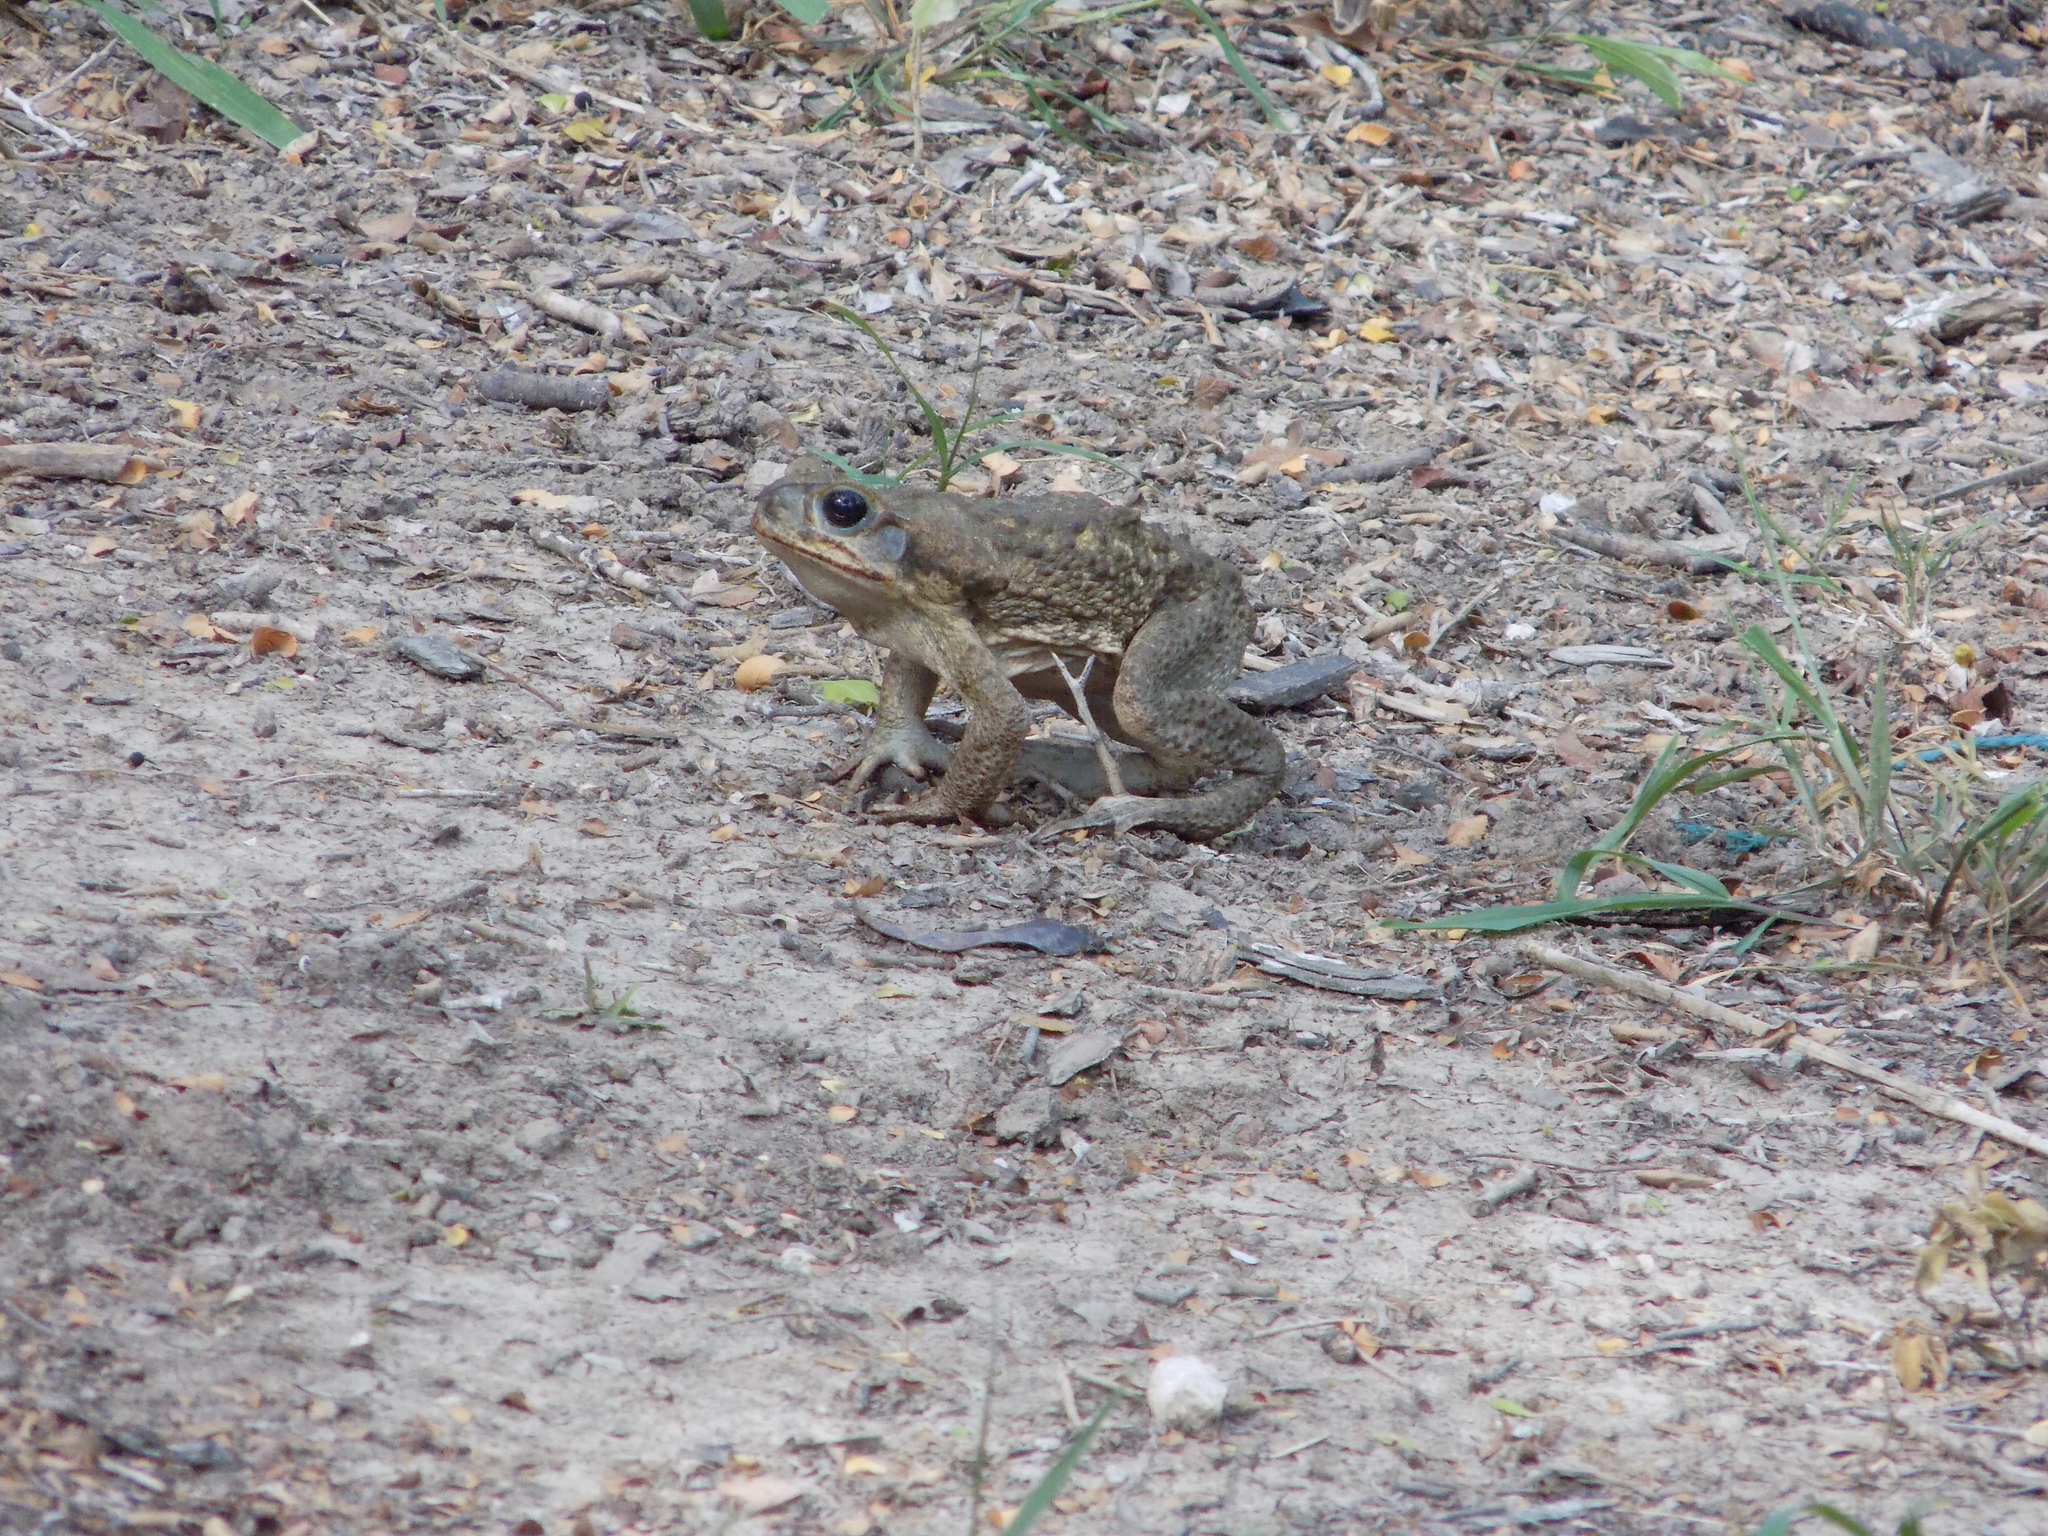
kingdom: Animalia
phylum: Chordata
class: Amphibia
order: Anura
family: Bufonidae
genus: Rhinella
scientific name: Rhinella horribilis
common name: Mesoamerican cane toad
